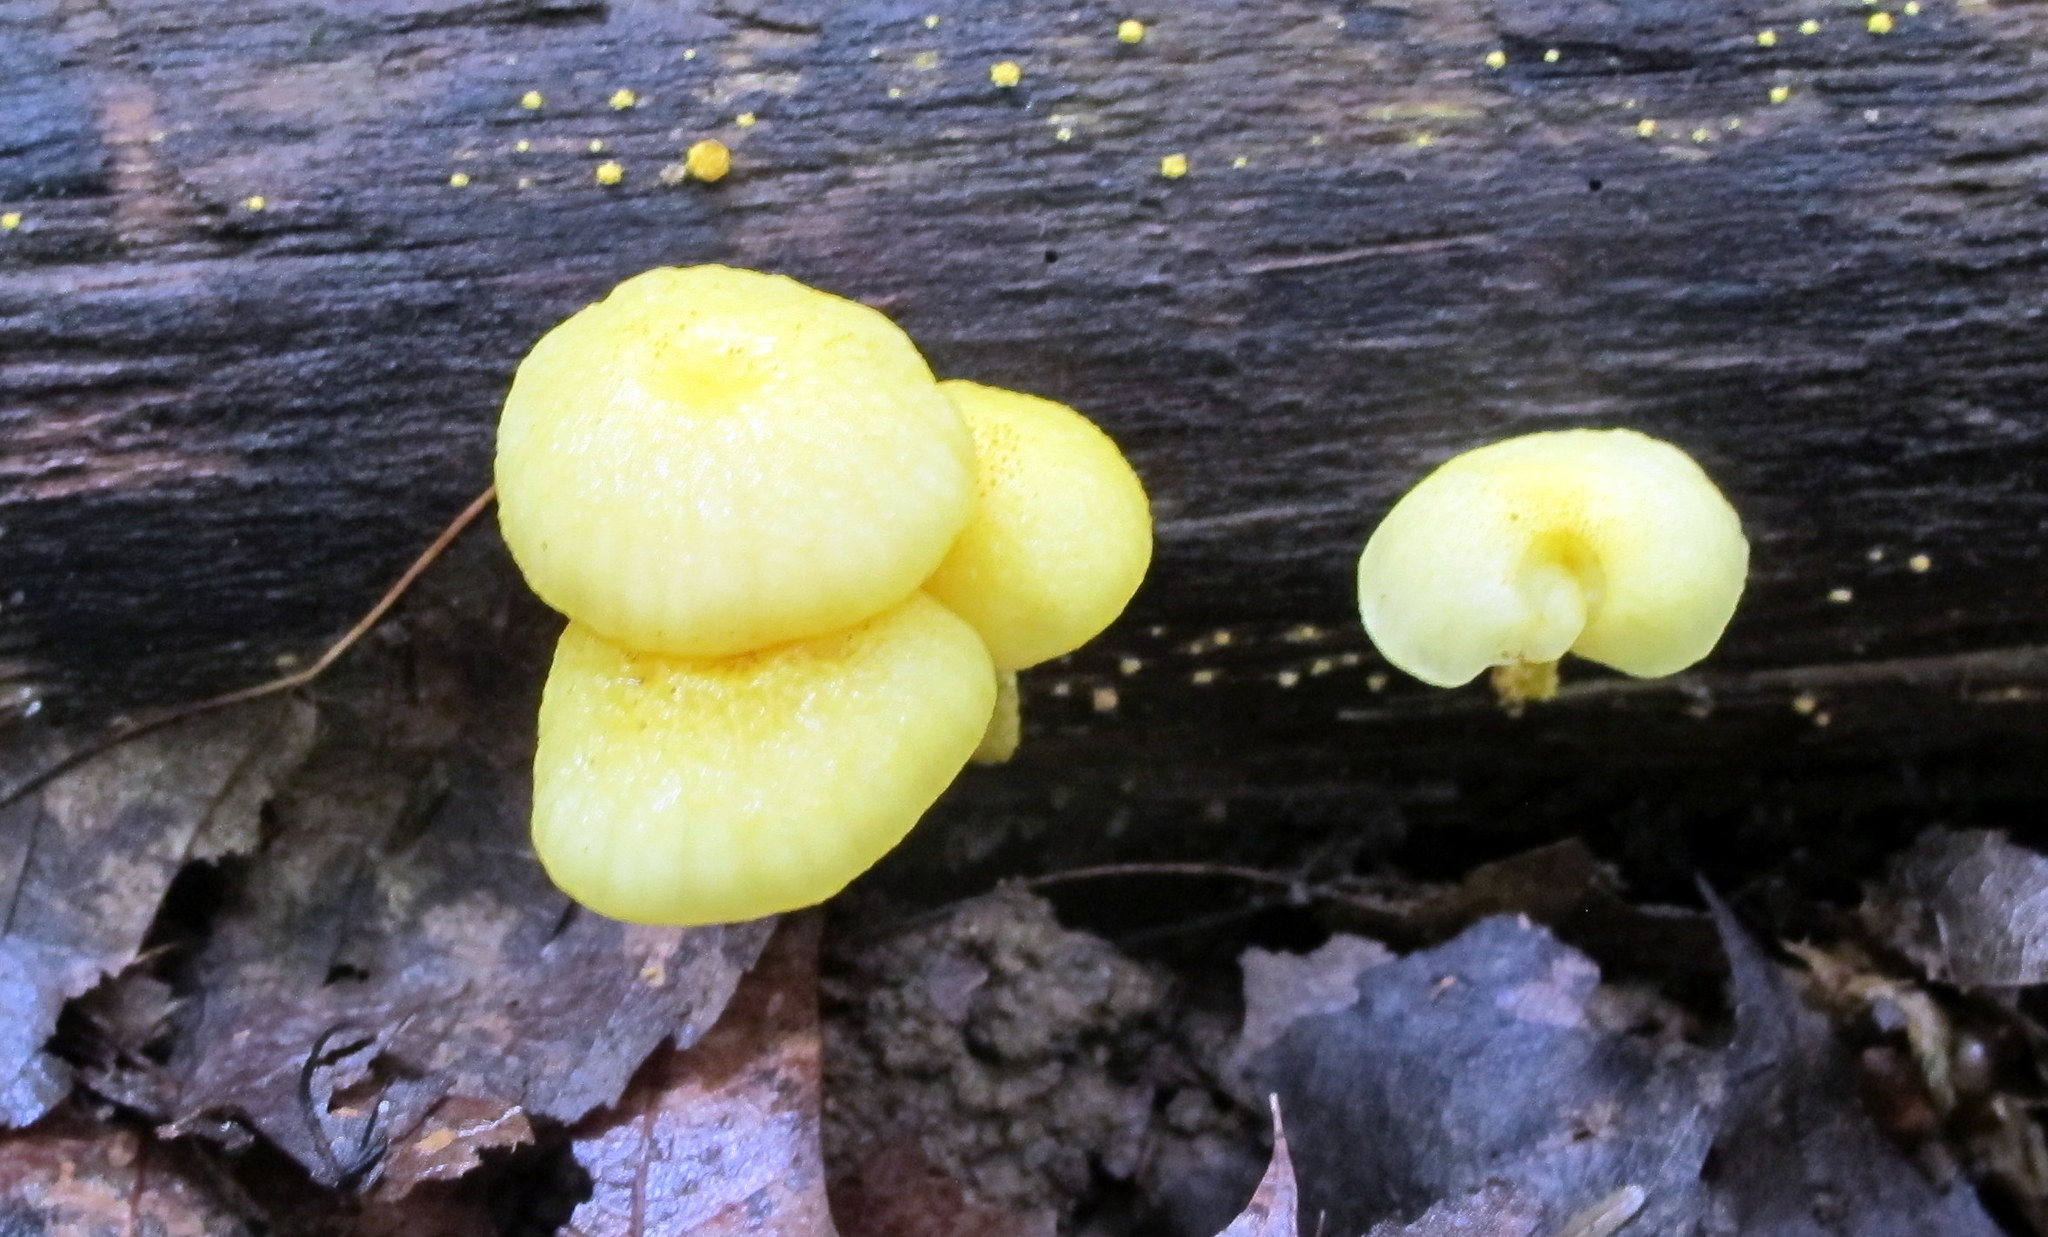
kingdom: Fungi
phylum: Basidiomycota
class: Agaricomycetes
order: Agaricales
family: Physalacriaceae
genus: Cyptotrama
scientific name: Cyptotrama asprata
